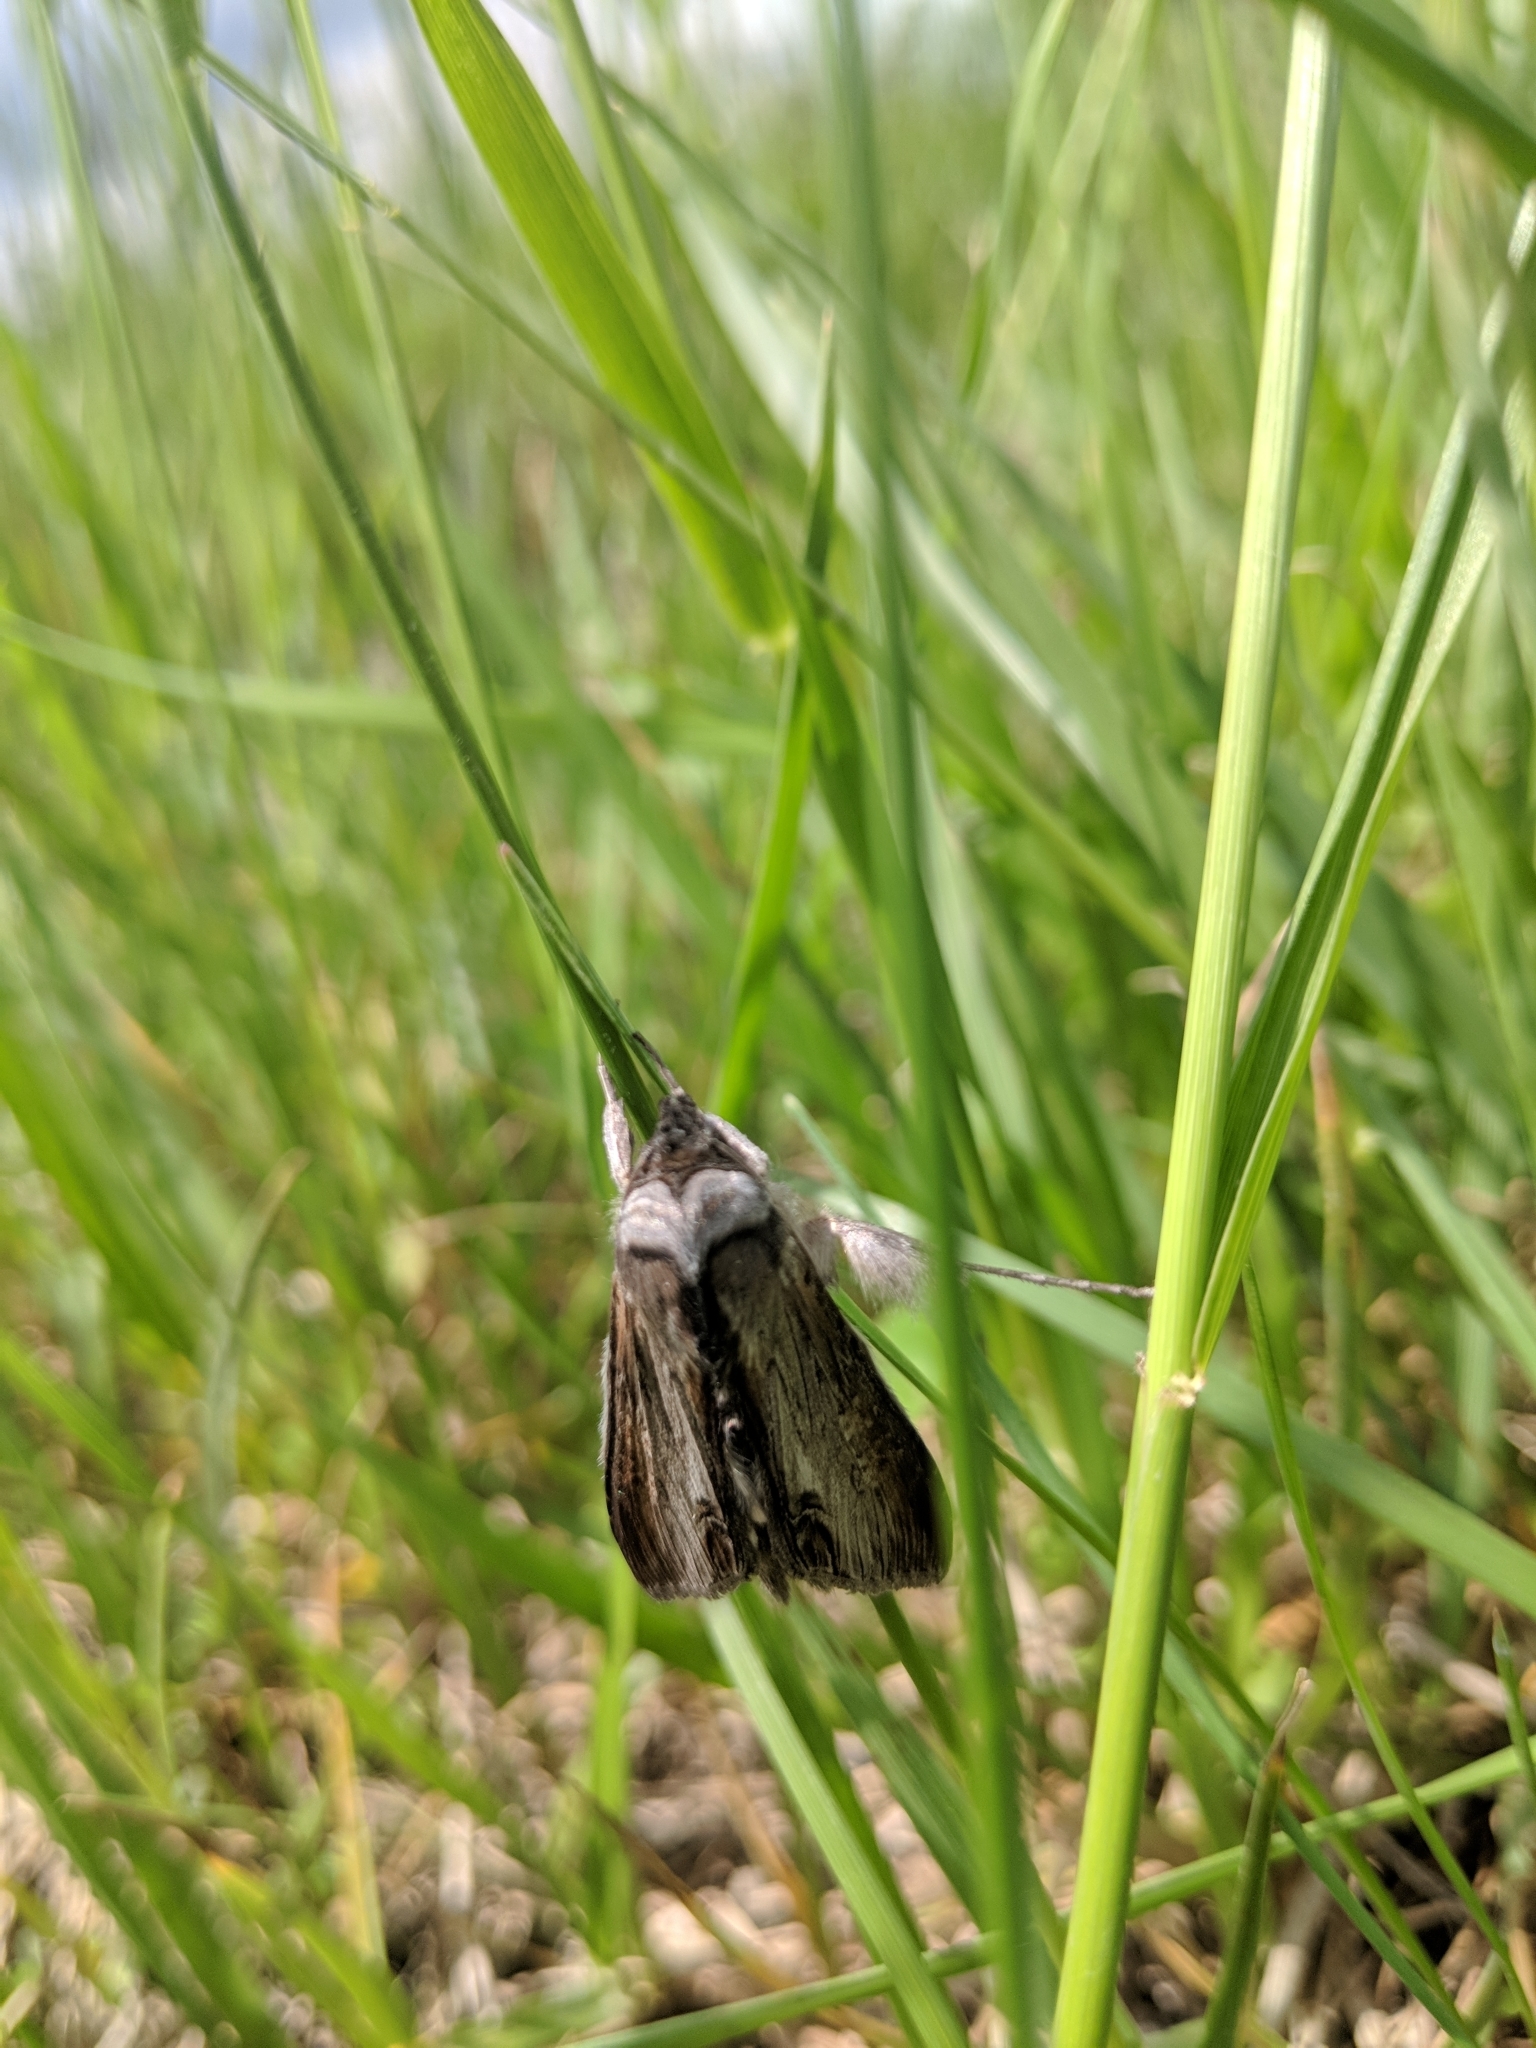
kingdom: Animalia
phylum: Arthropoda
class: Insecta
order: Lepidoptera
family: Noctuidae
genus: Cucullia
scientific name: Cucullia asteroides
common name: Asteroid moth
